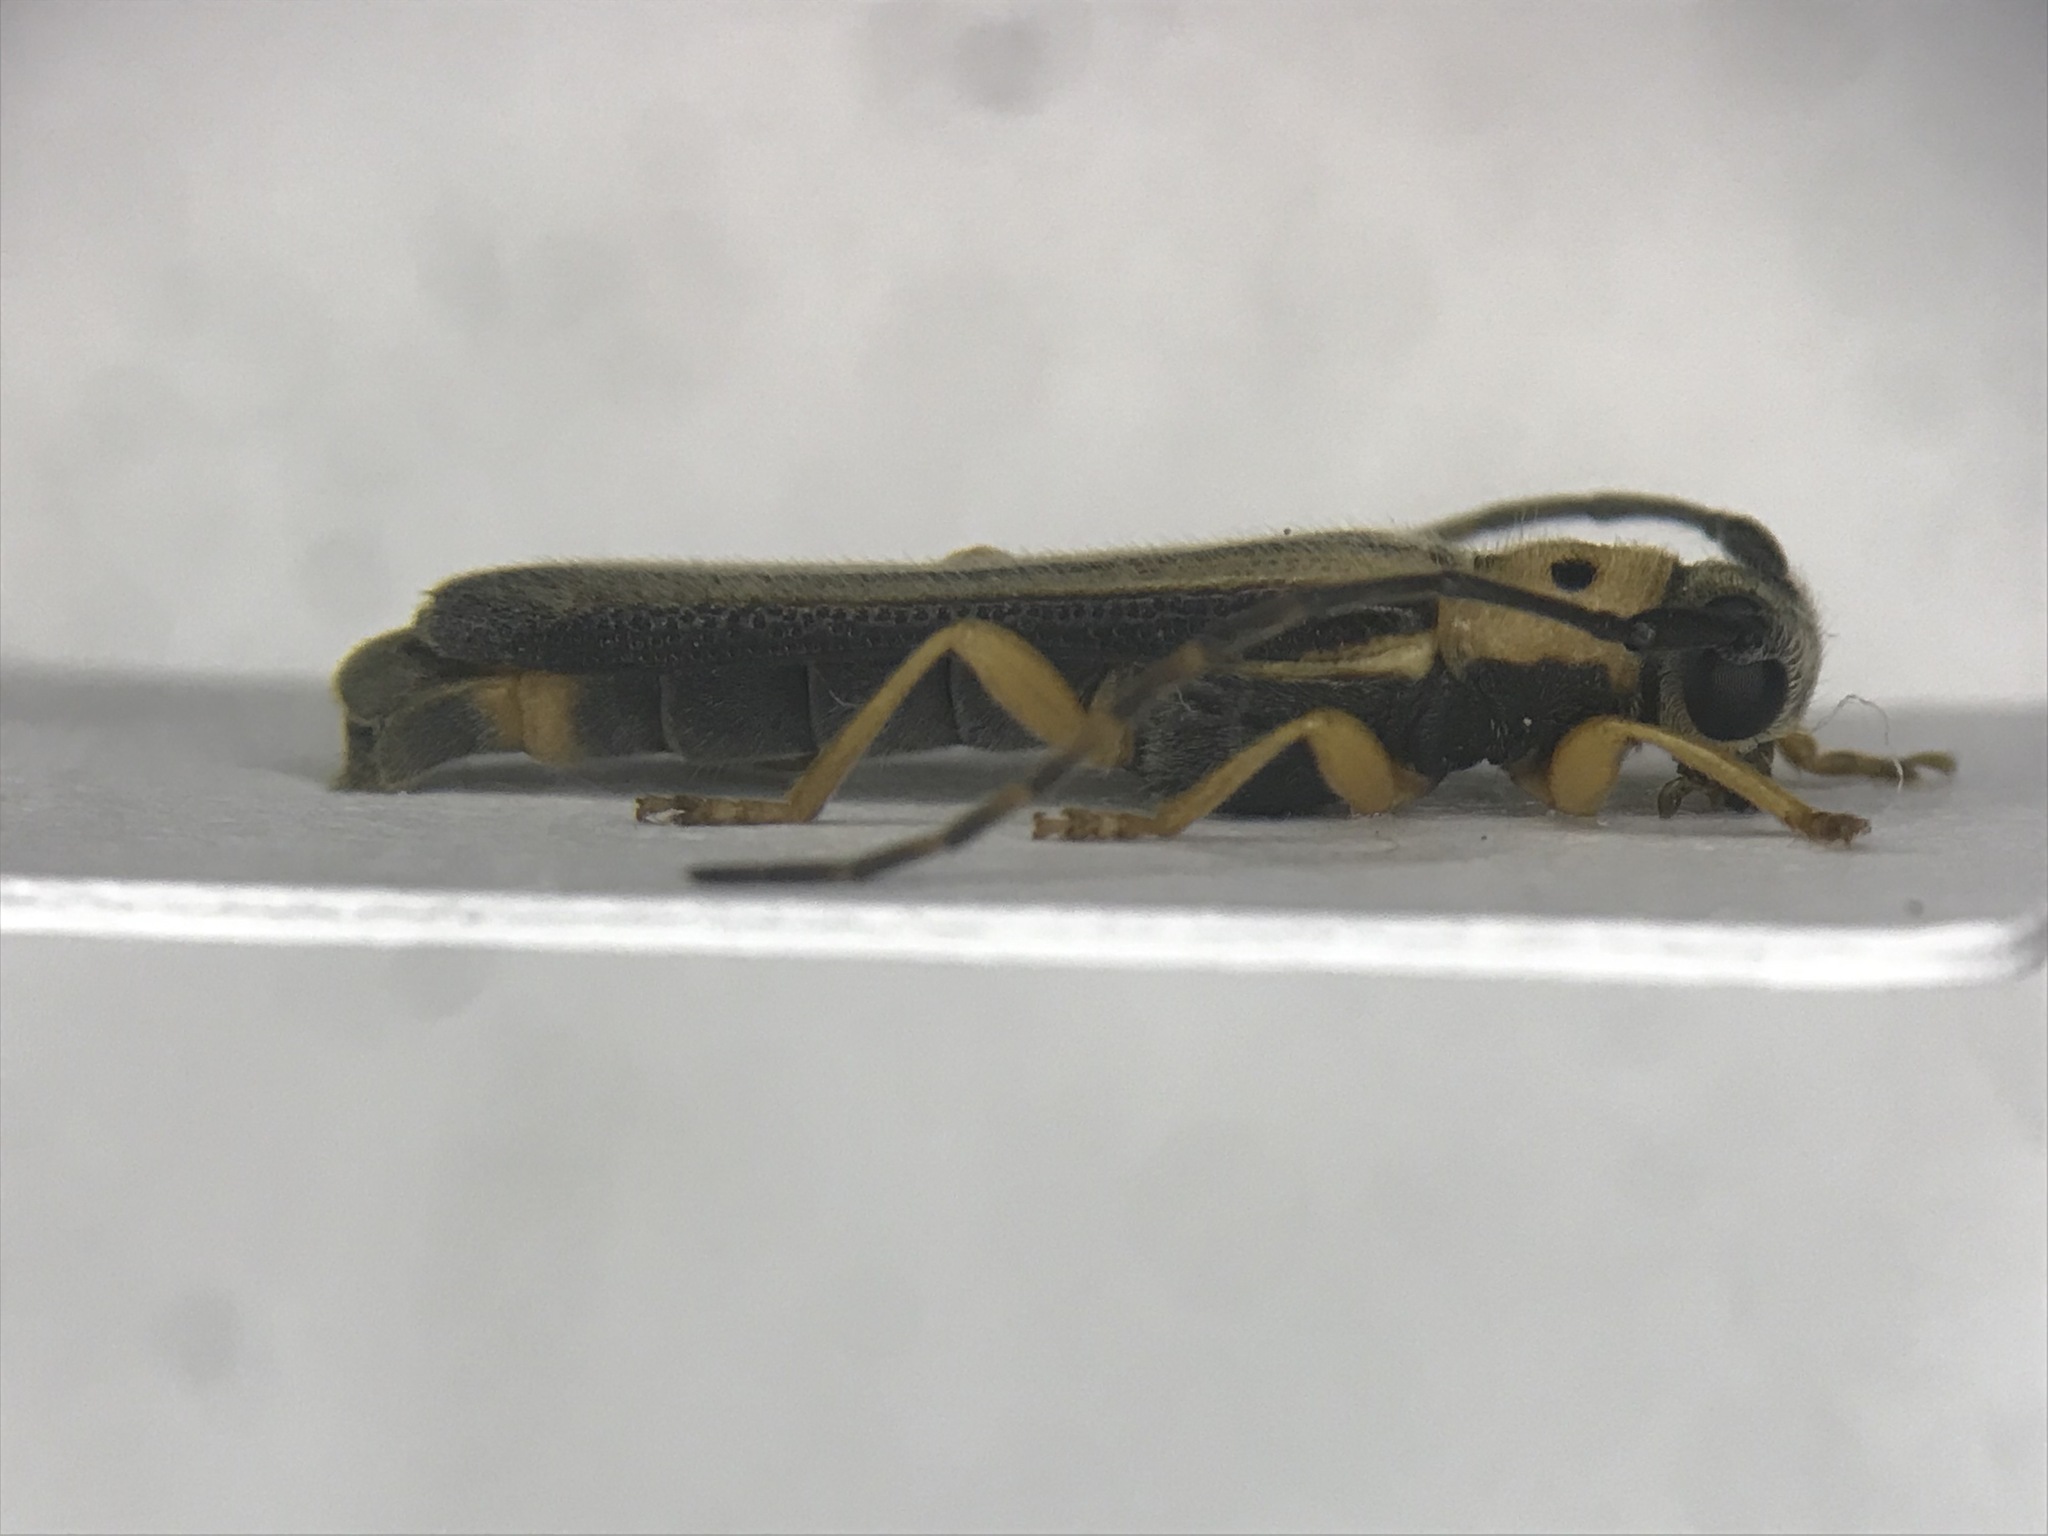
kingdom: Animalia
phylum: Arthropoda
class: Insecta
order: Coleoptera
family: Cerambycidae
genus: Oberea
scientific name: Oberea tripunctata
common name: Dogwood twig borer
